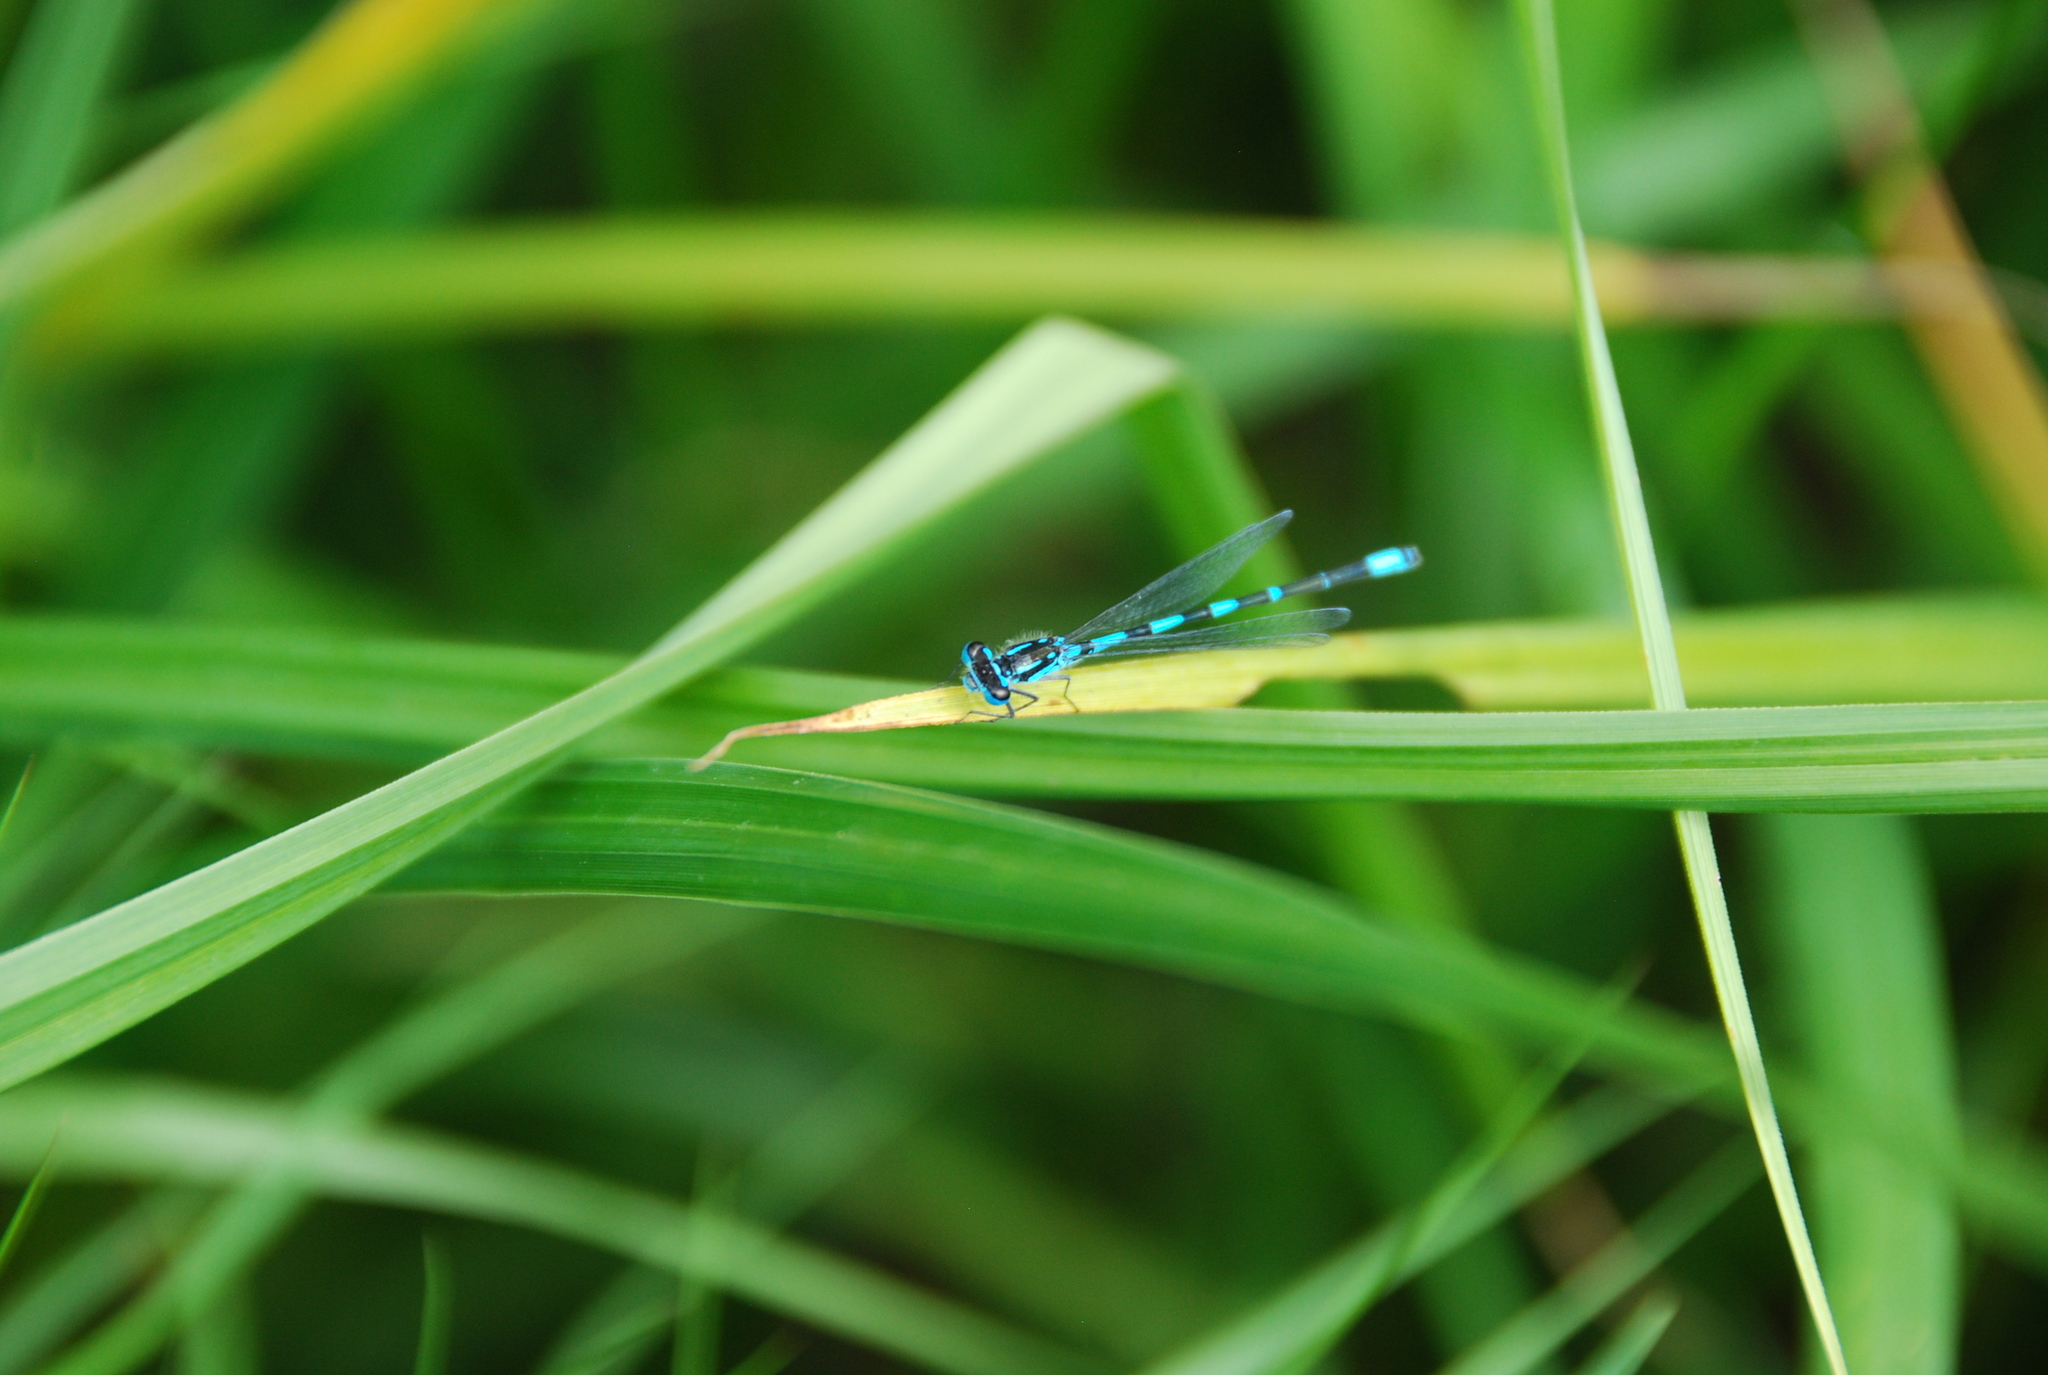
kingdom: Animalia
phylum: Arthropoda
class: Insecta
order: Odonata
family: Coenagrionidae
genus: Coenagrion
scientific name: Coenagrion pulchellum
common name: Variable bluet
